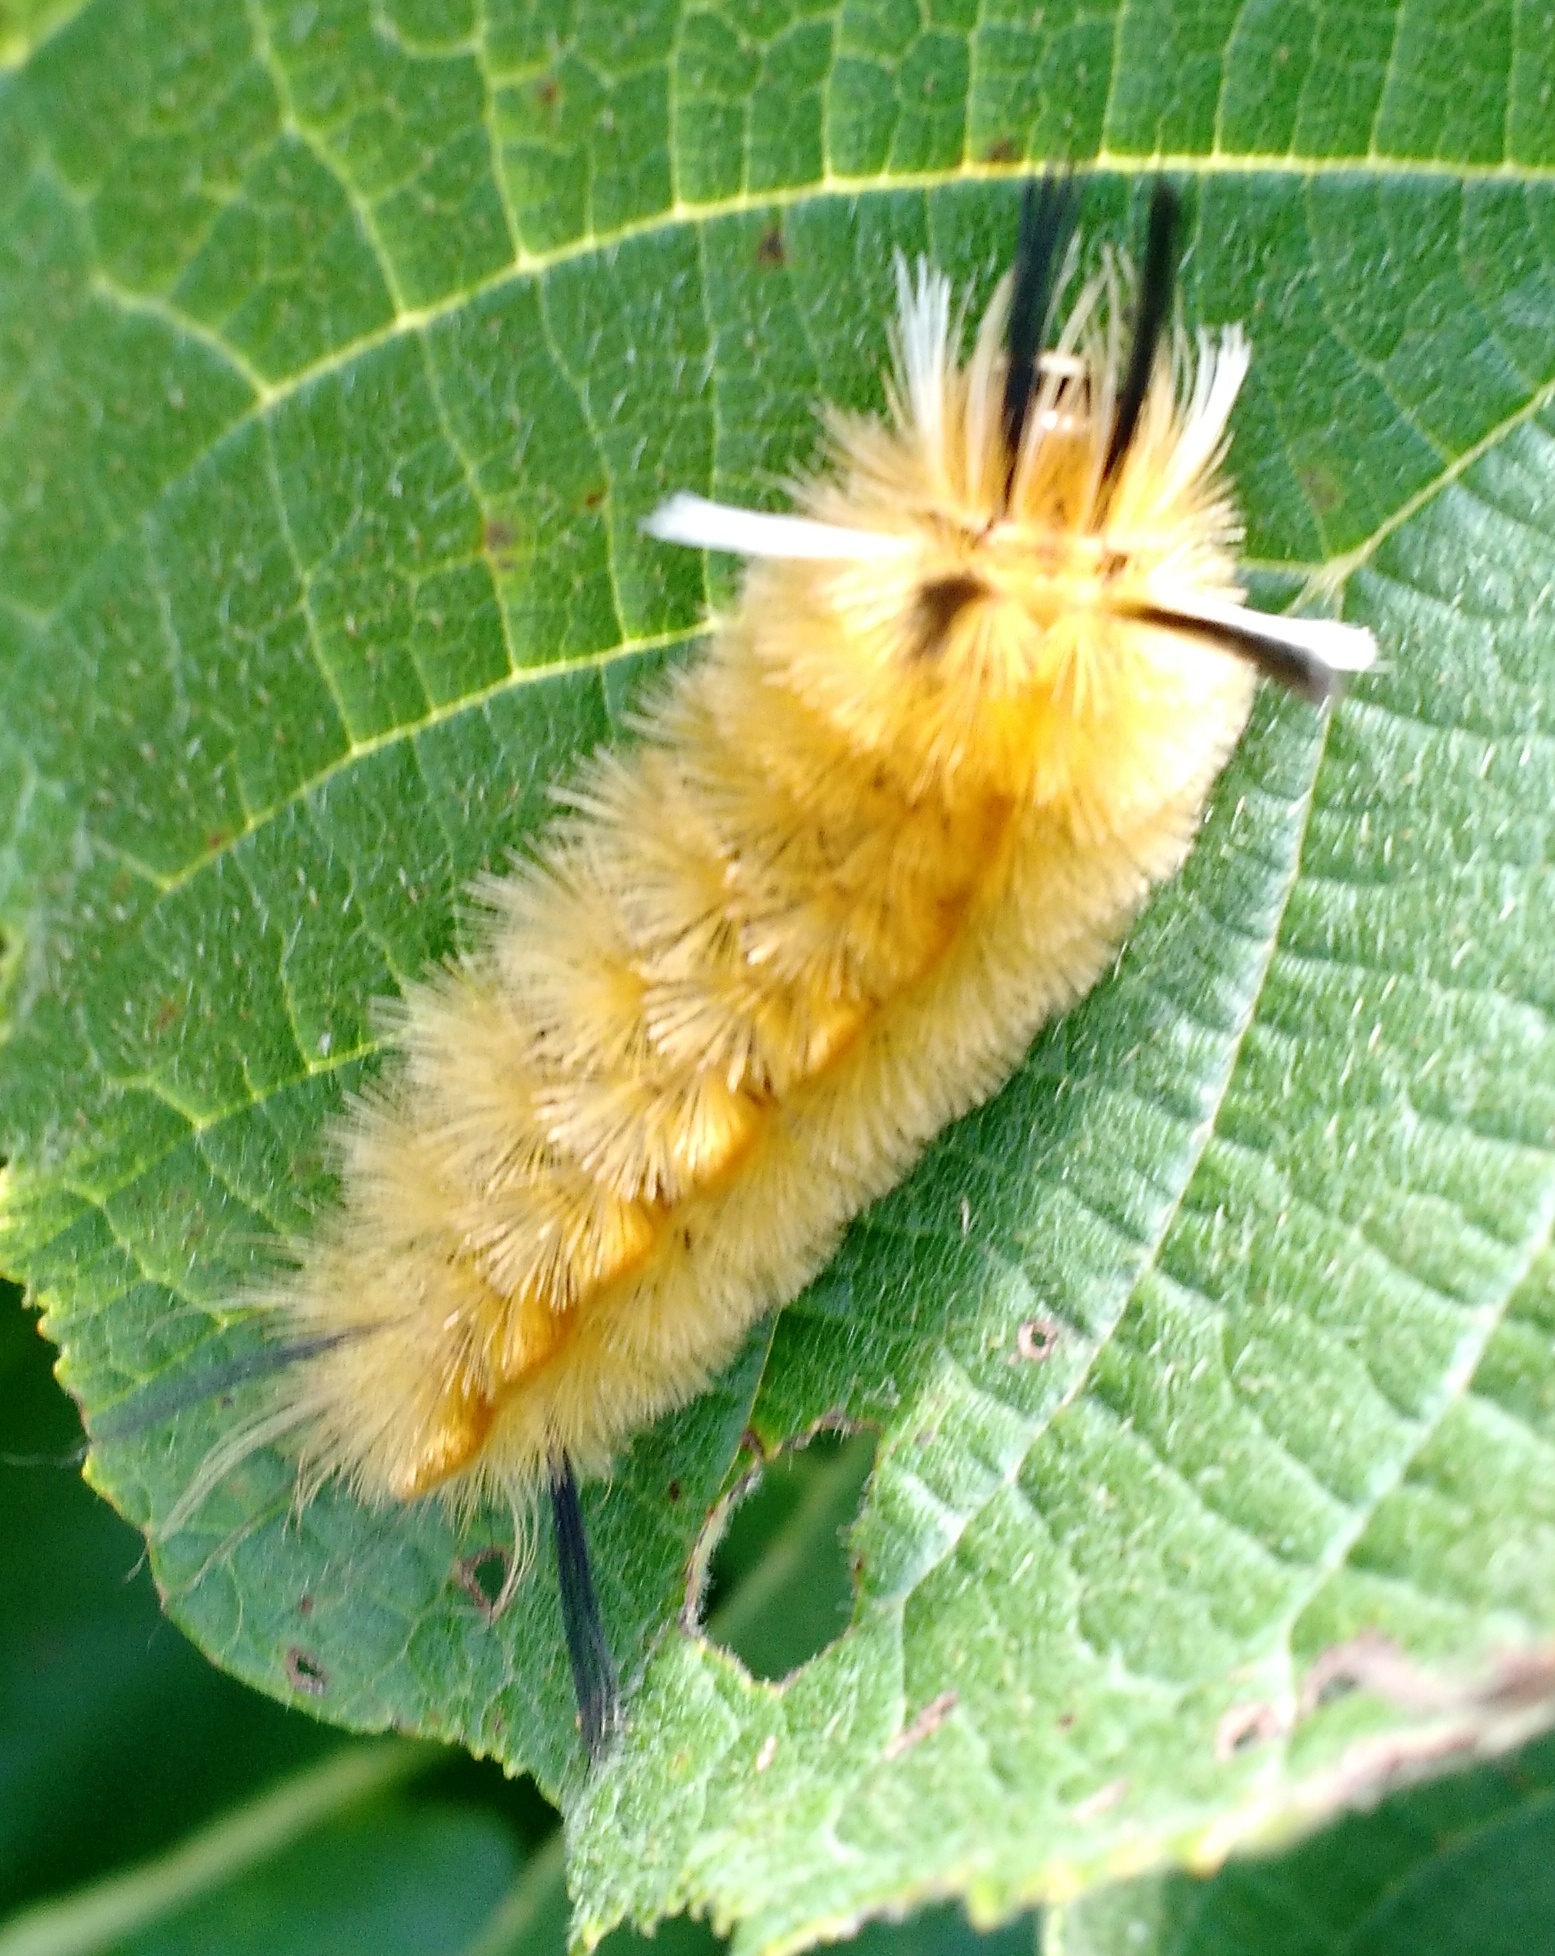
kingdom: Animalia
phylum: Arthropoda
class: Insecta
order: Lepidoptera
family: Erebidae
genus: Halysidota
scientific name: Halysidota tessellaris
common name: Banded tussock moth
